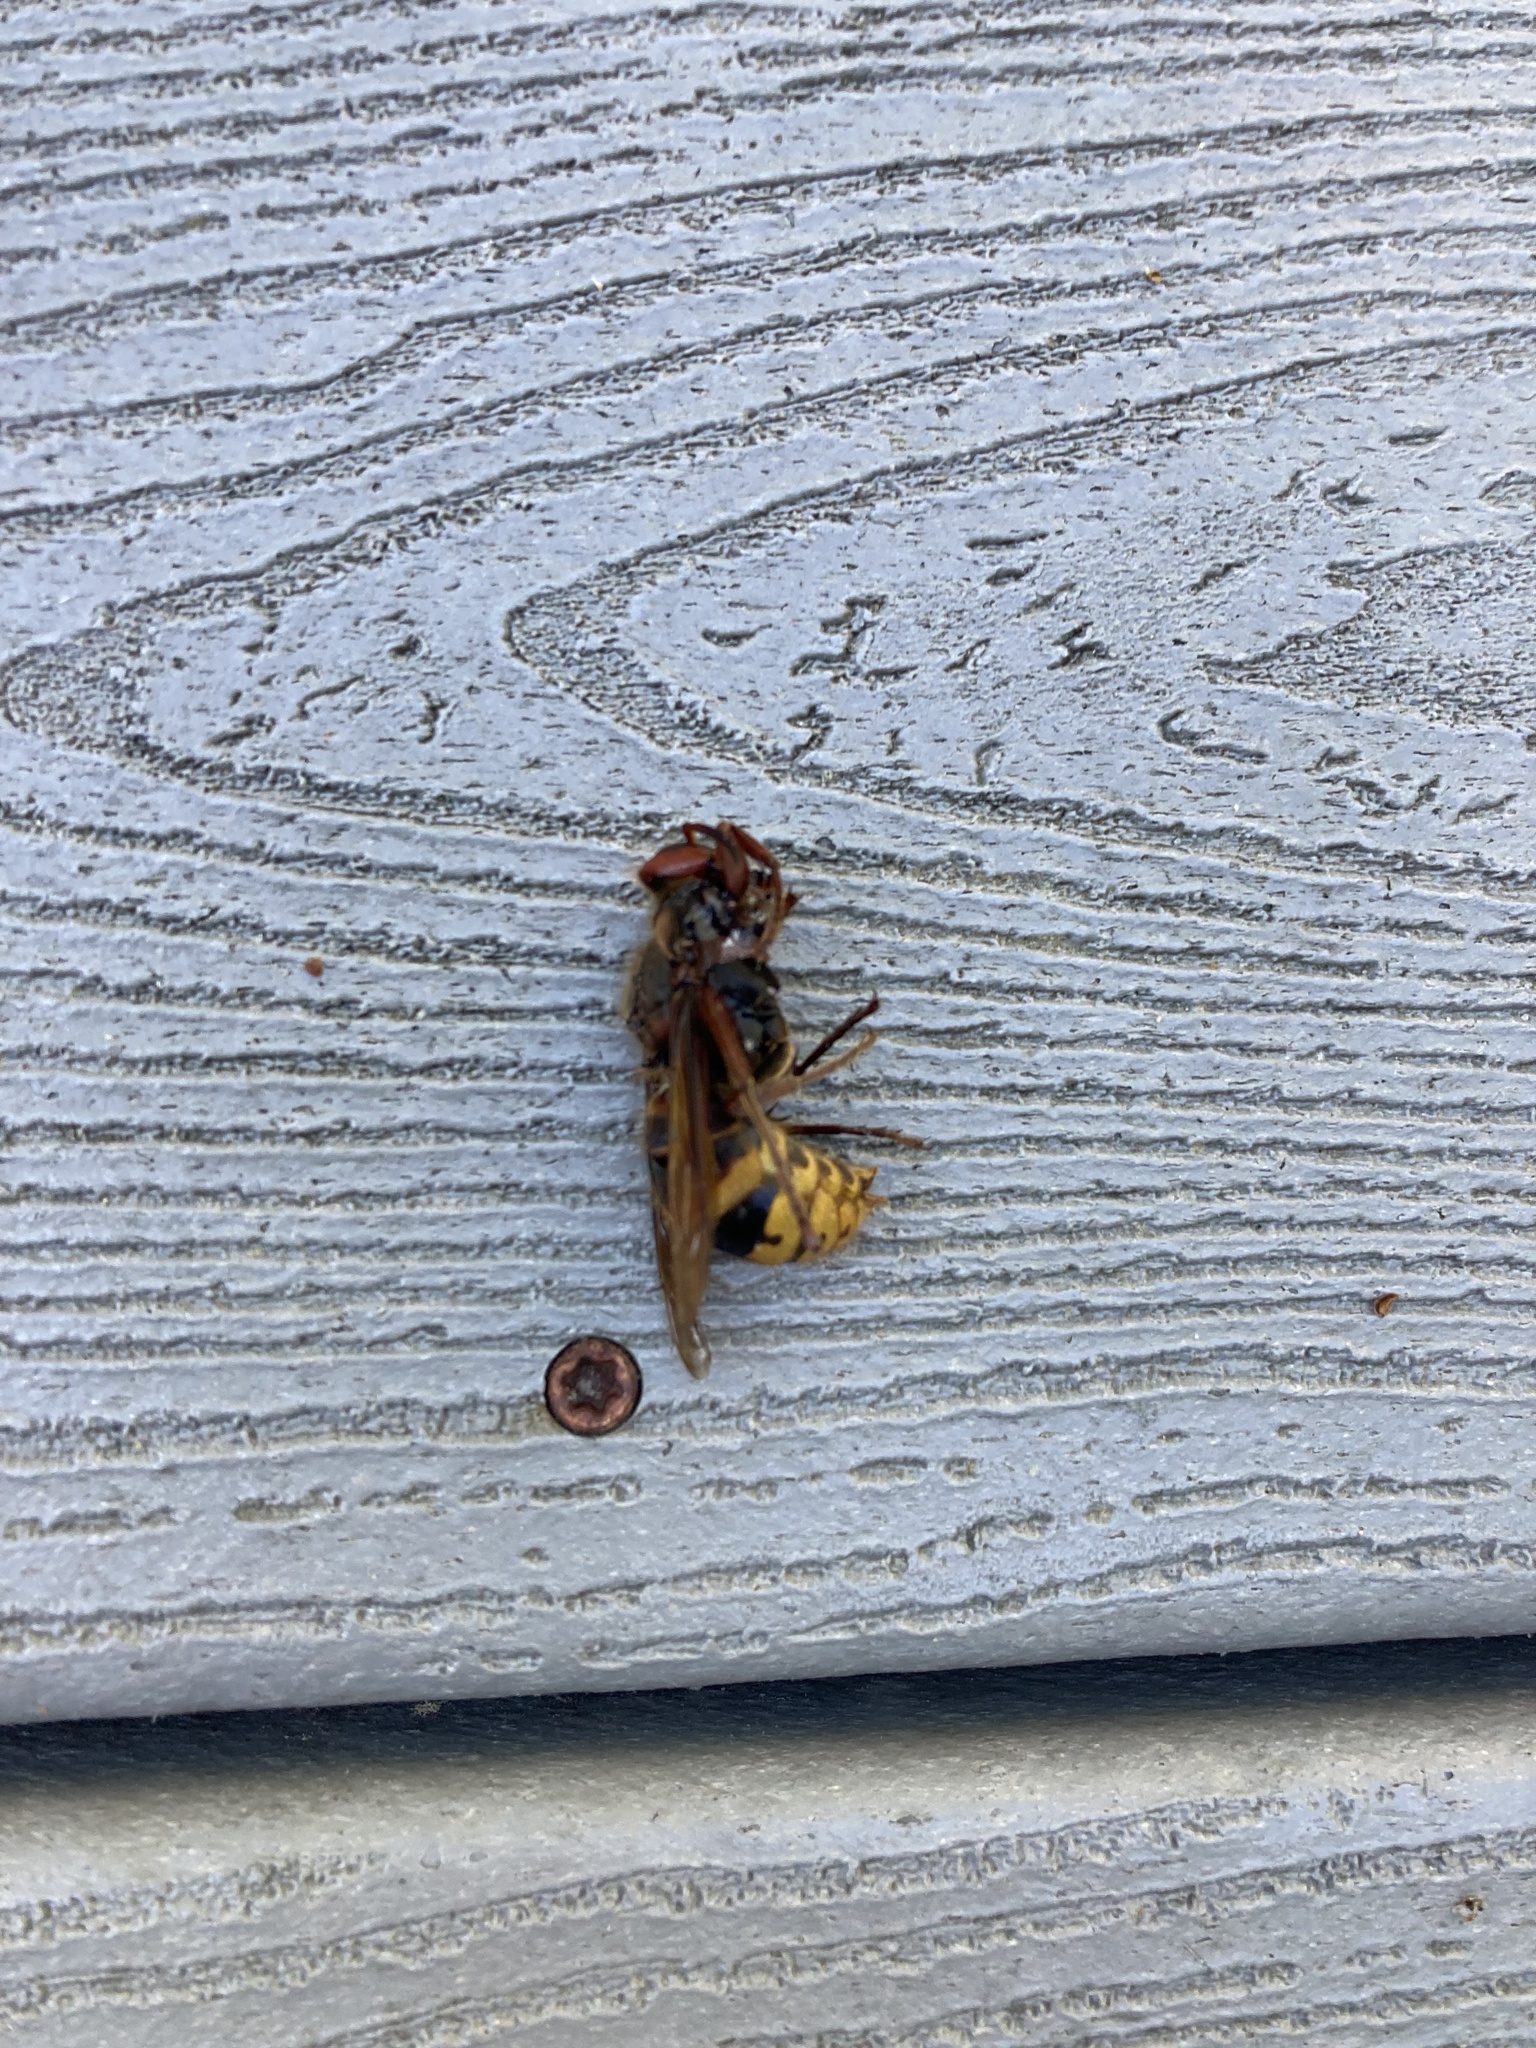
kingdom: Animalia
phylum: Arthropoda
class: Insecta
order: Hymenoptera
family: Vespidae
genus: Vespa
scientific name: Vespa crabro
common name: Hornet
